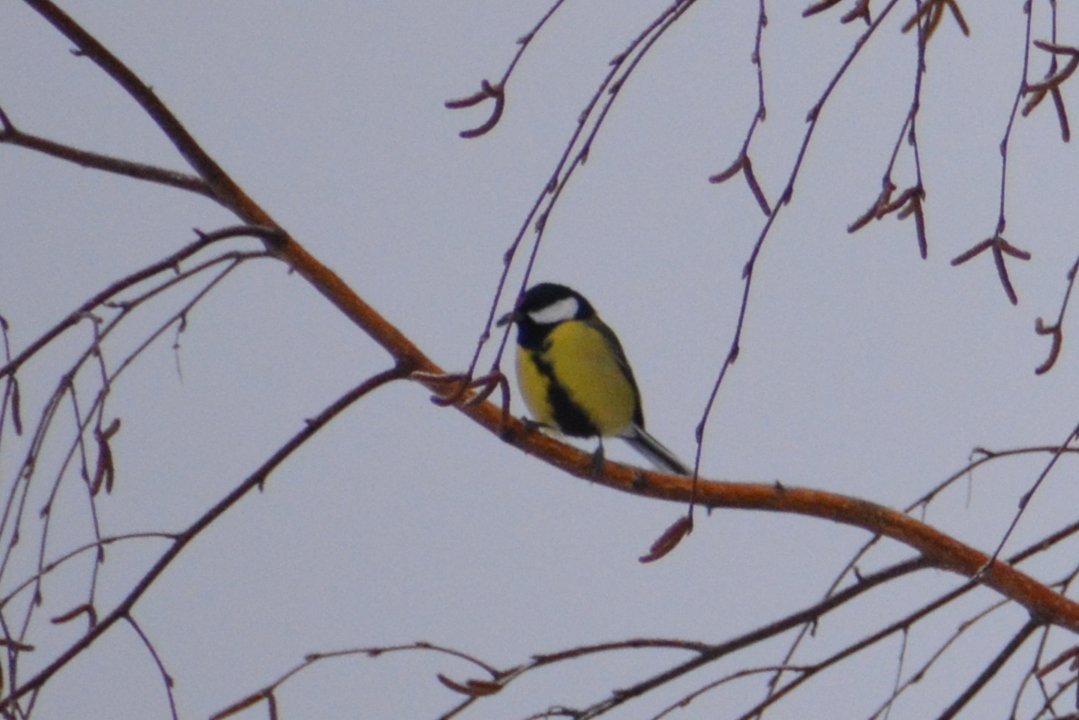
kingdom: Animalia
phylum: Chordata
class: Aves
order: Passeriformes
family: Paridae
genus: Parus
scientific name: Parus major
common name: Great tit
